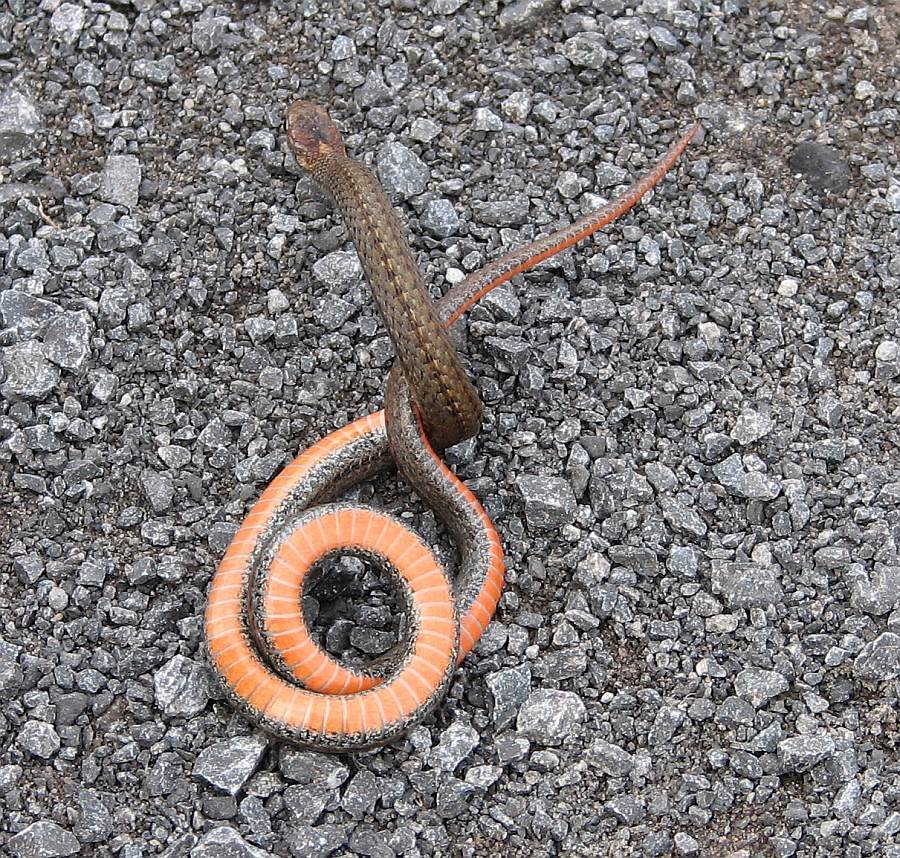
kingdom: Animalia
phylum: Chordata
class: Squamata
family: Colubridae
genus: Storeria
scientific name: Storeria occipitomaculata
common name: Redbelly snake
